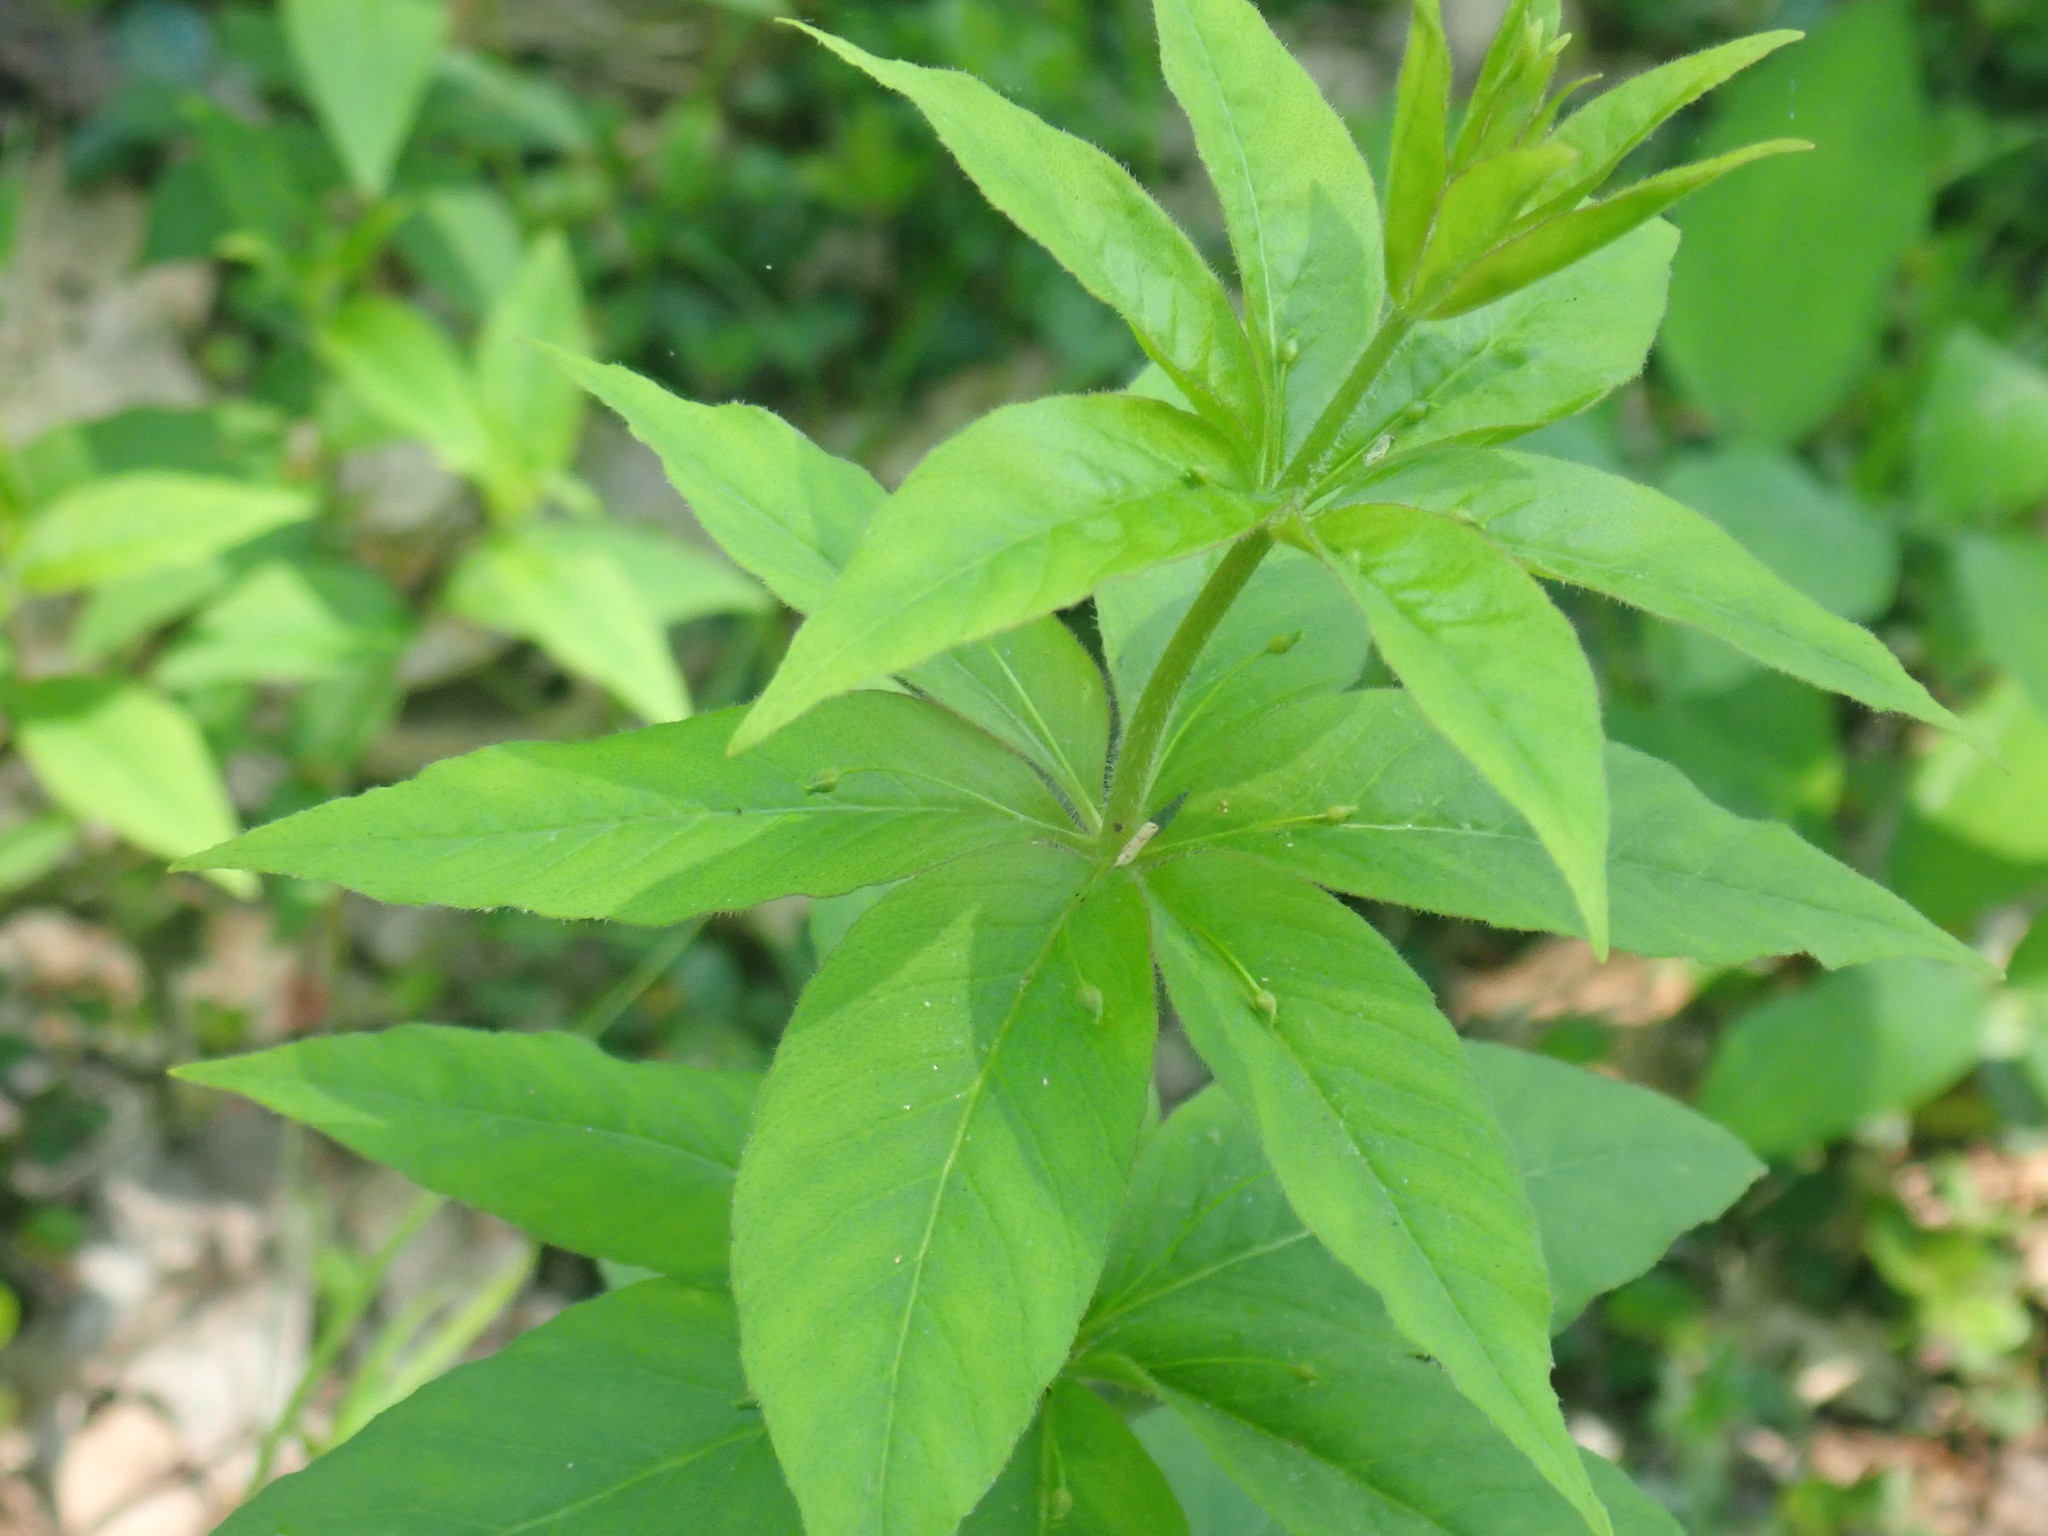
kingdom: Plantae
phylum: Tracheophyta
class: Magnoliopsida
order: Ericales
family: Primulaceae
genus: Lysimachia
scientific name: Lysimachia quadrifolia
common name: Whorled loosestrife
